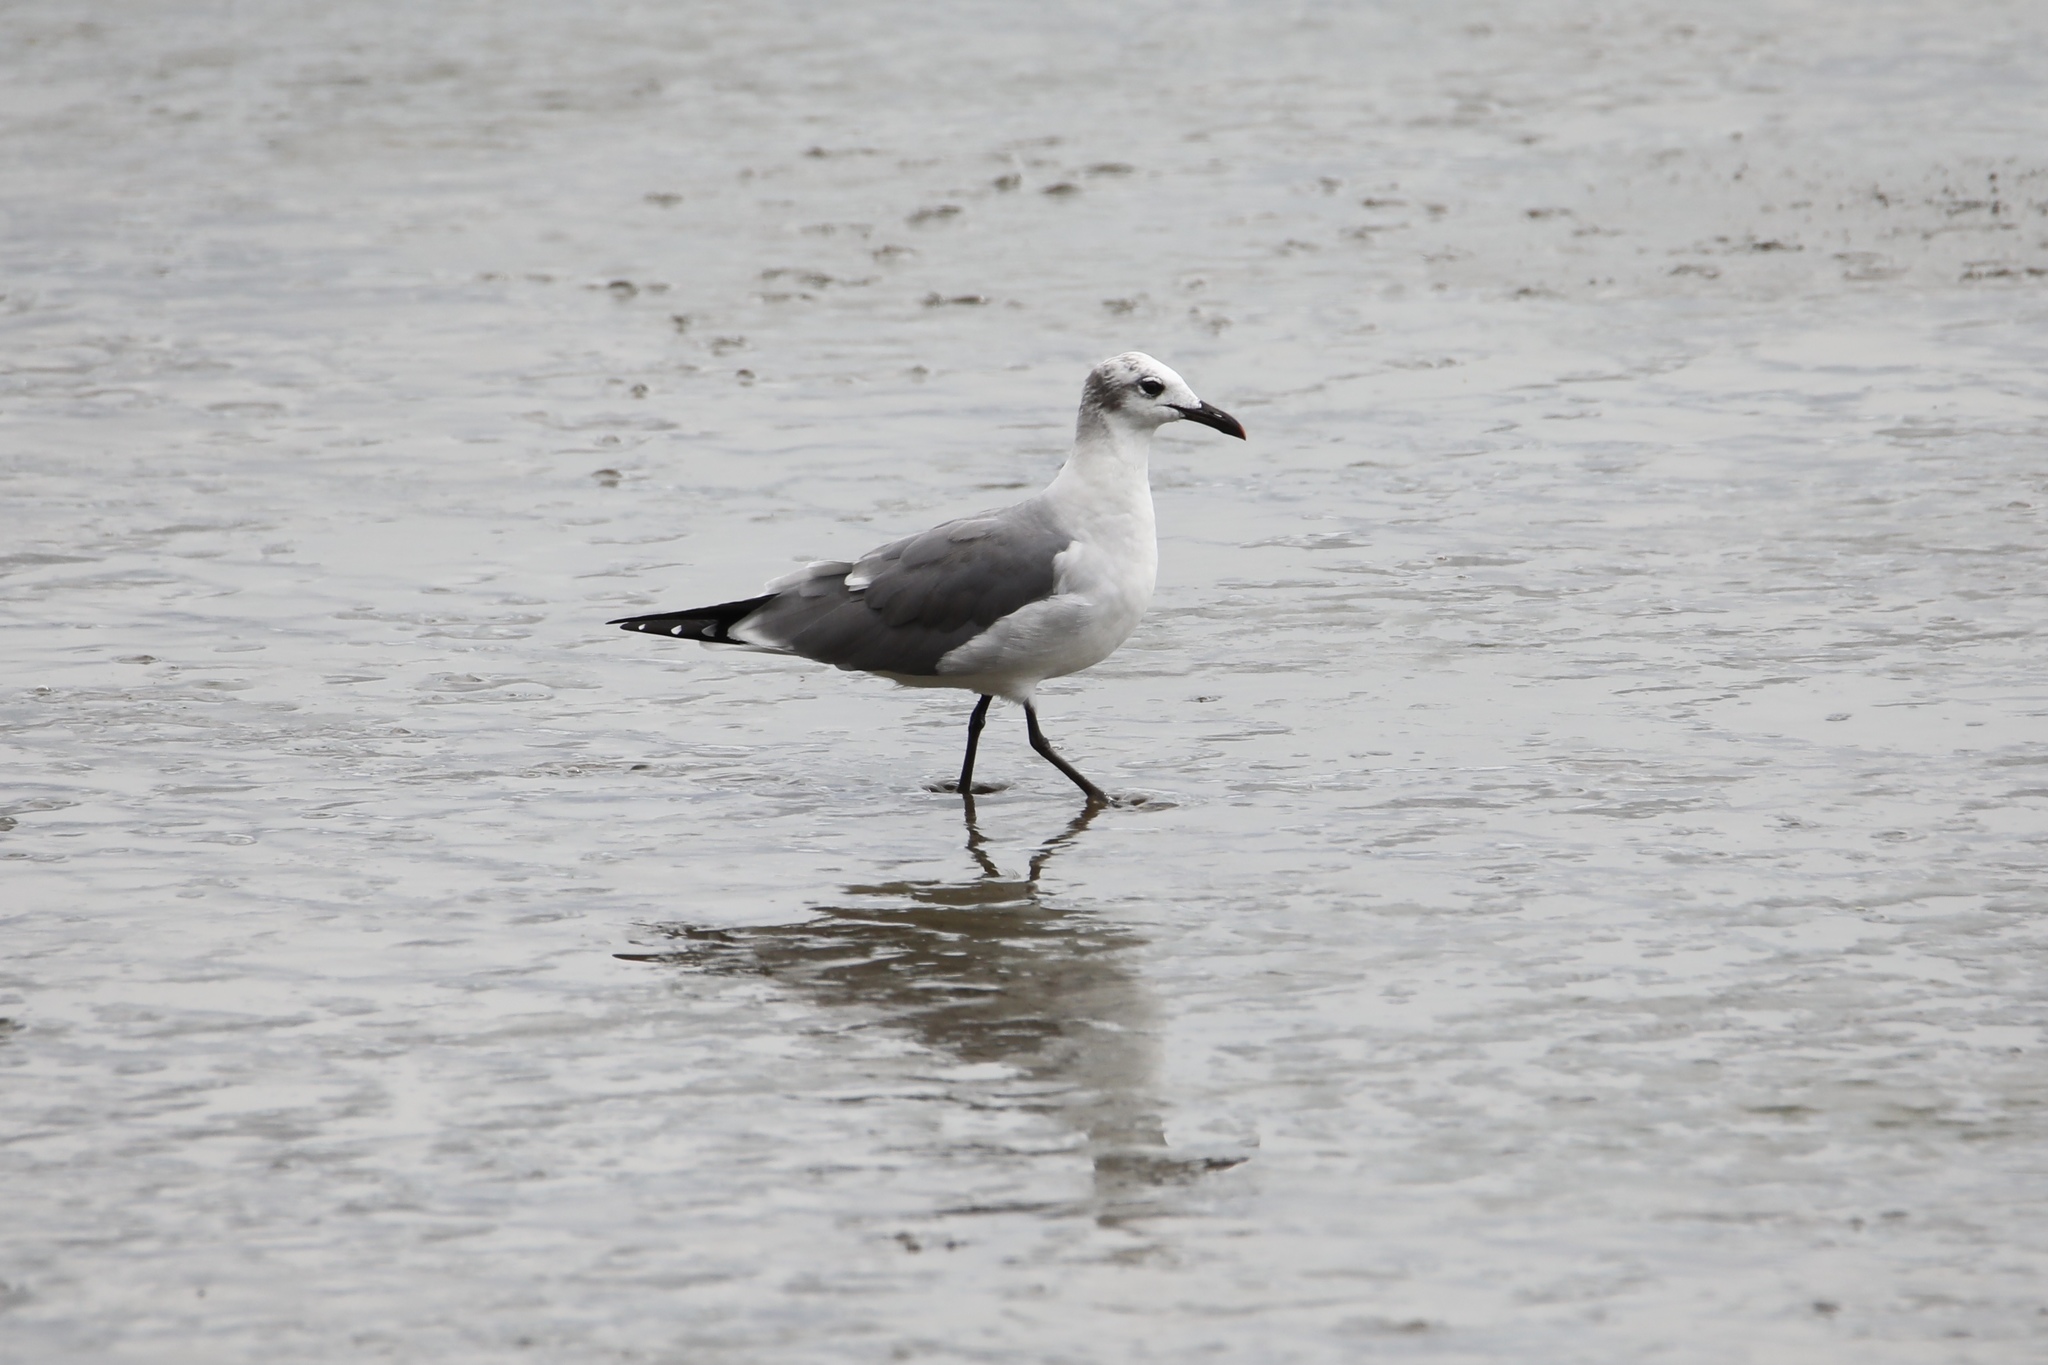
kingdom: Animalia
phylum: Chordata
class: Aves
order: Charadriiformes
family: Laridae
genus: Leucophaeus
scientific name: Leucophaeus atricilla
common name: Laughing gull
